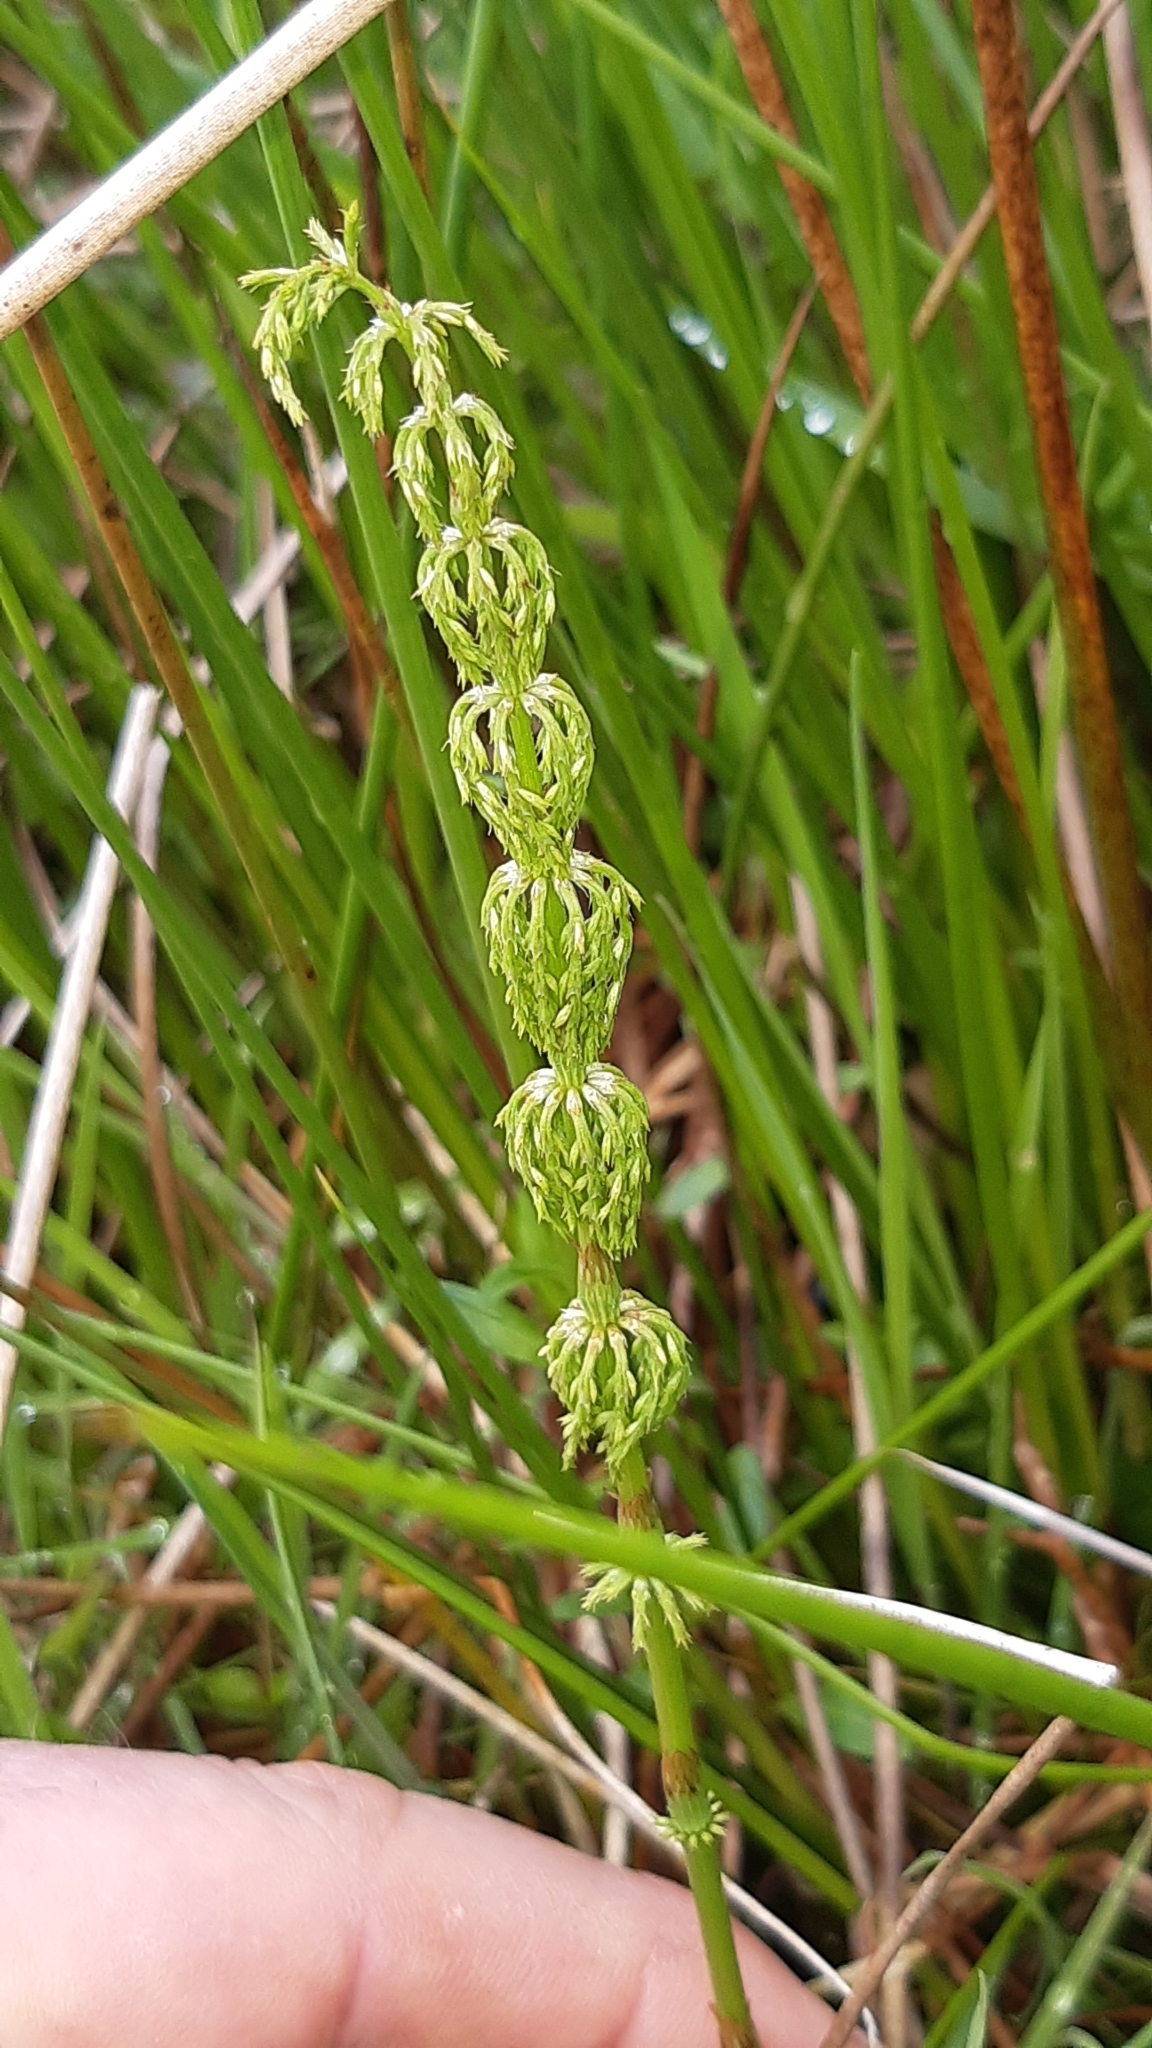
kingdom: Plantae
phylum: Tracheophyta
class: Polypodiopsida
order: Equisetales
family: Equisetaceae
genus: Equisetum
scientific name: Equisetum sylvaticum
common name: Wood horsetail
